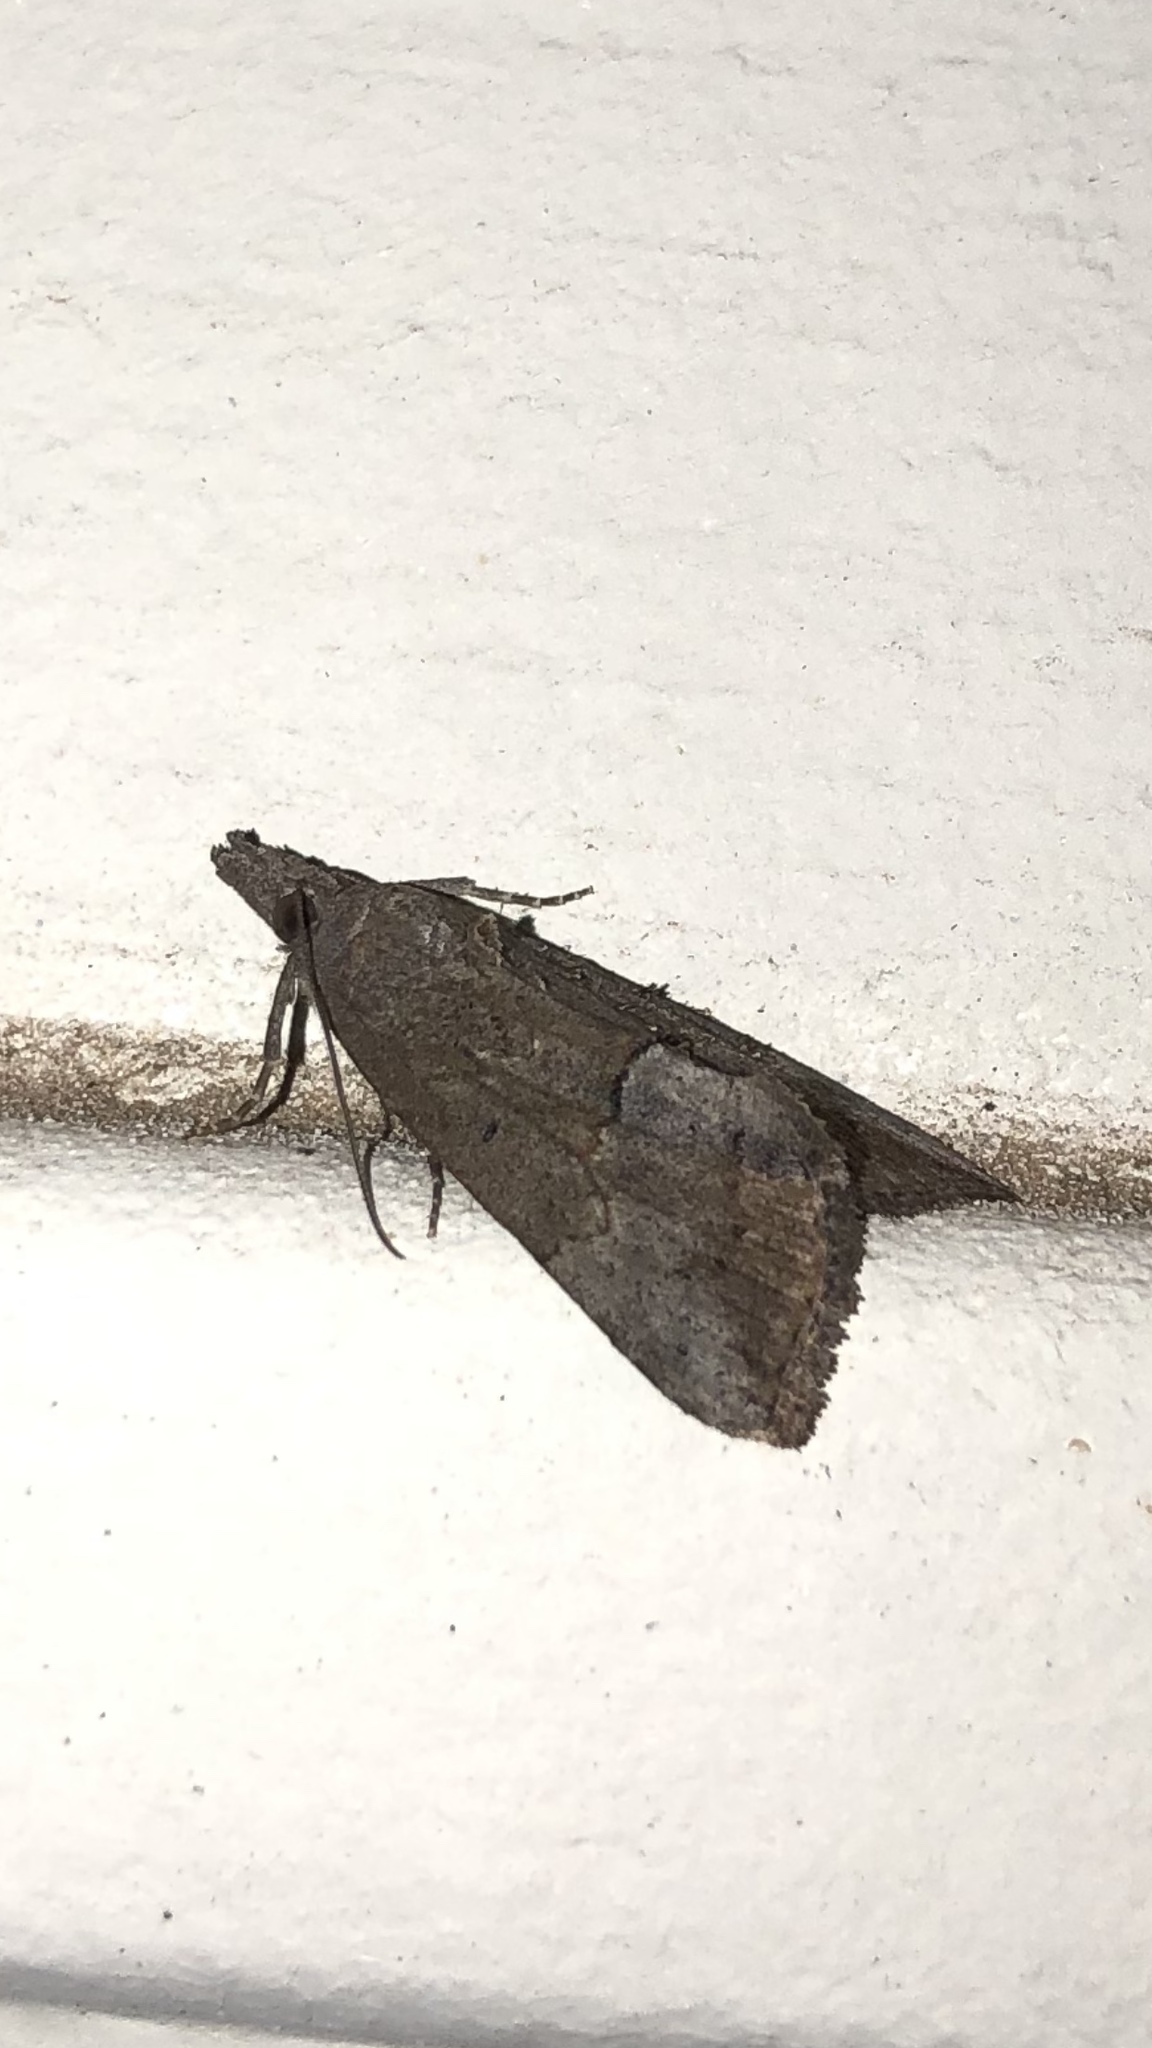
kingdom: Animalia
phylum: Arthropoda
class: Insecta
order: Lepidoptera
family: Erebidae
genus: Hypena
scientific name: Hypena scabra
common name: Green cloverworm
